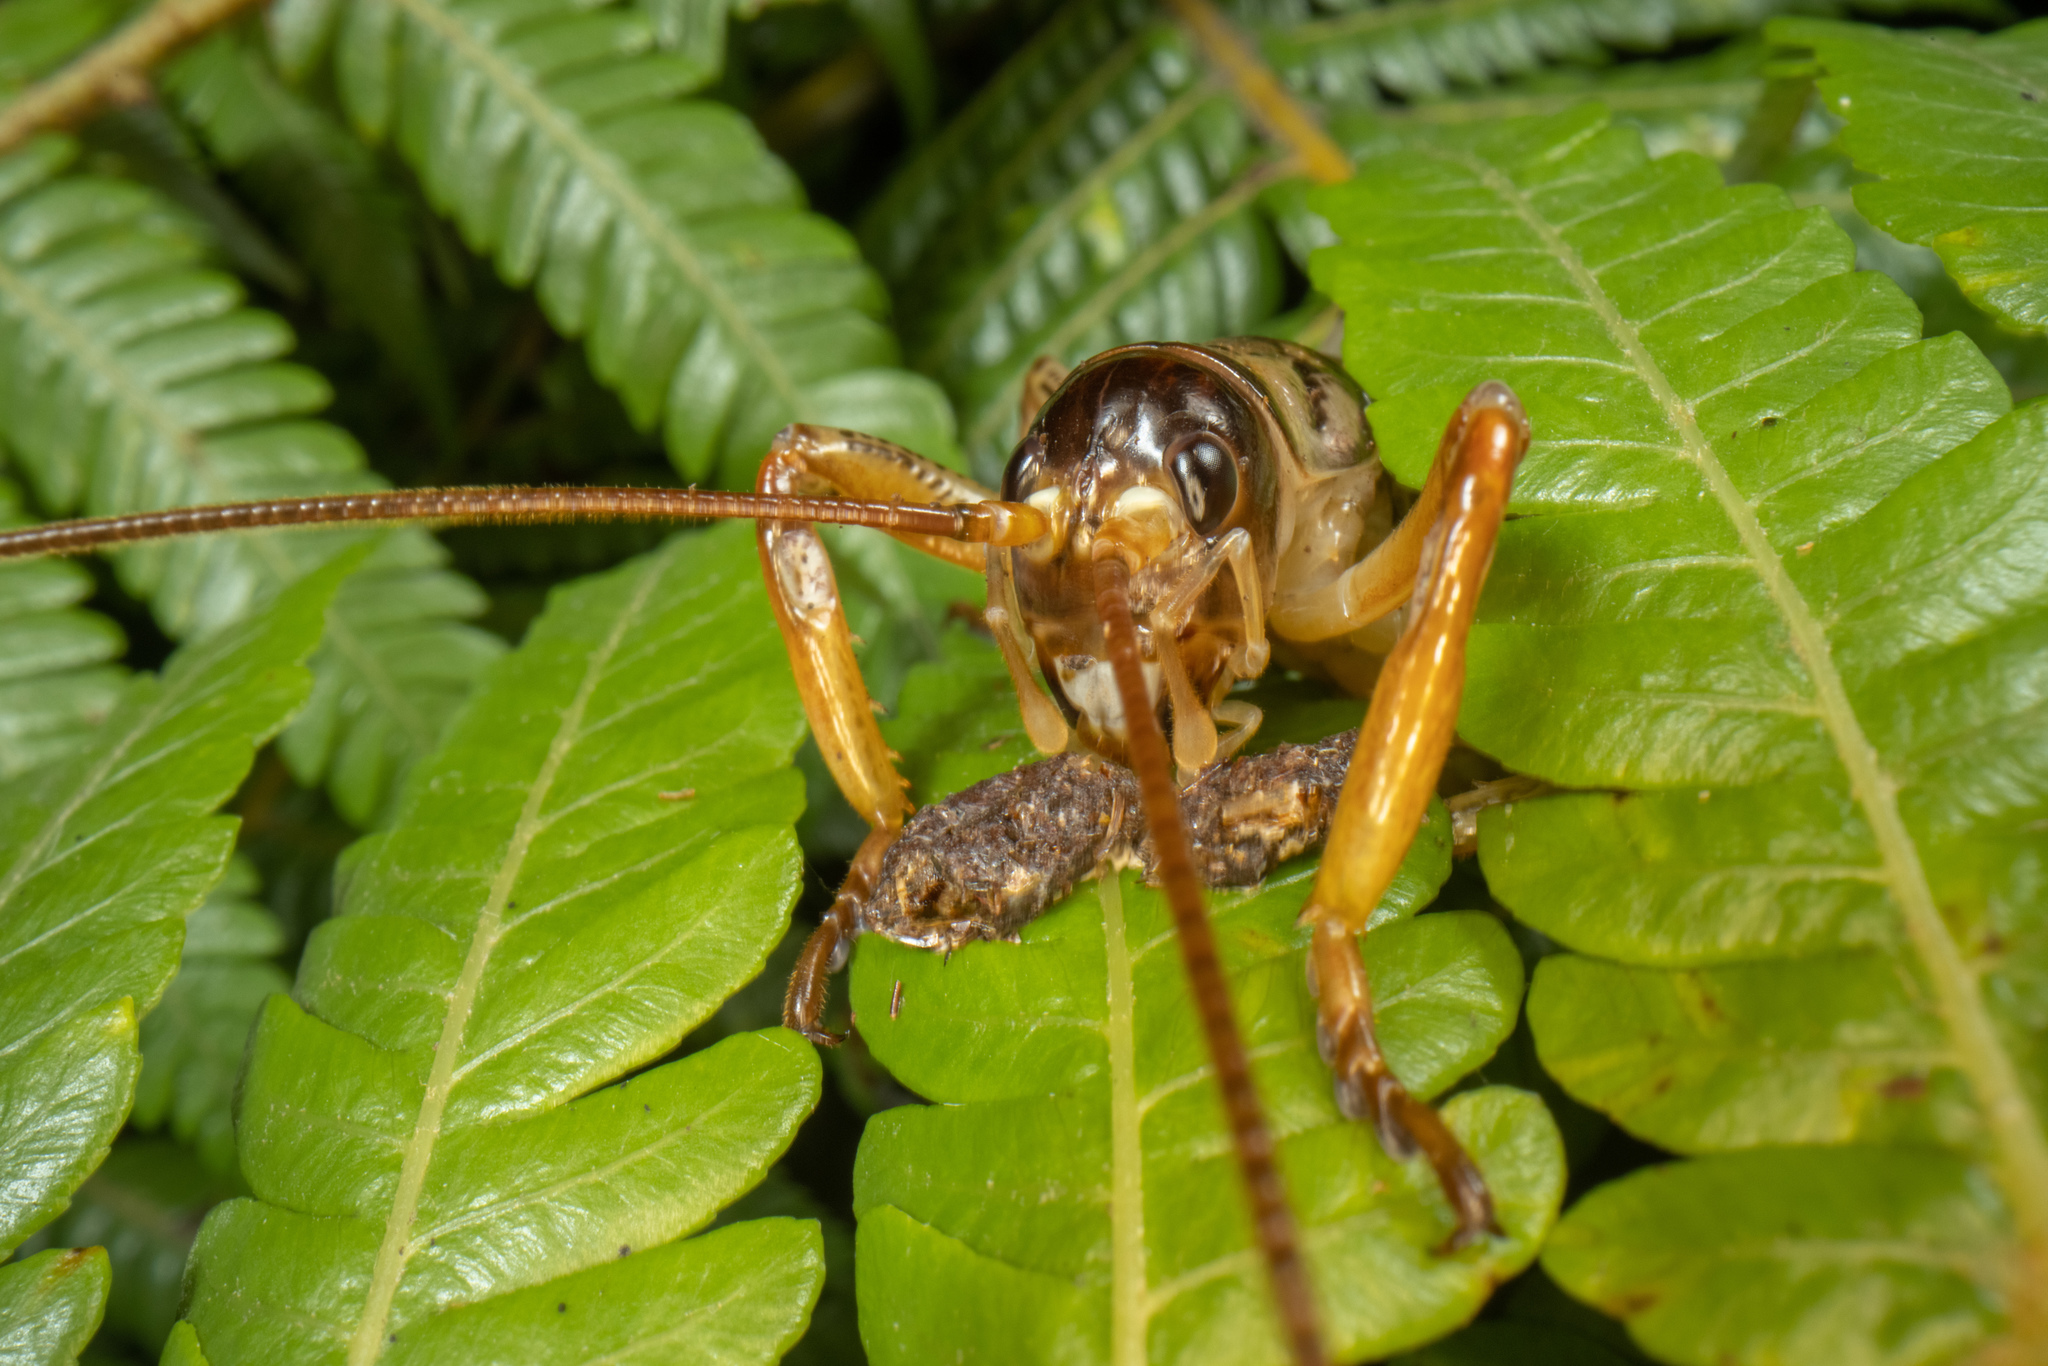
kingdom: Animalia
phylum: Arthropoda
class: Insecta
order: Orthoptera
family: Anostostomatidae
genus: Hemideina
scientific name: Hemideina thoracica
